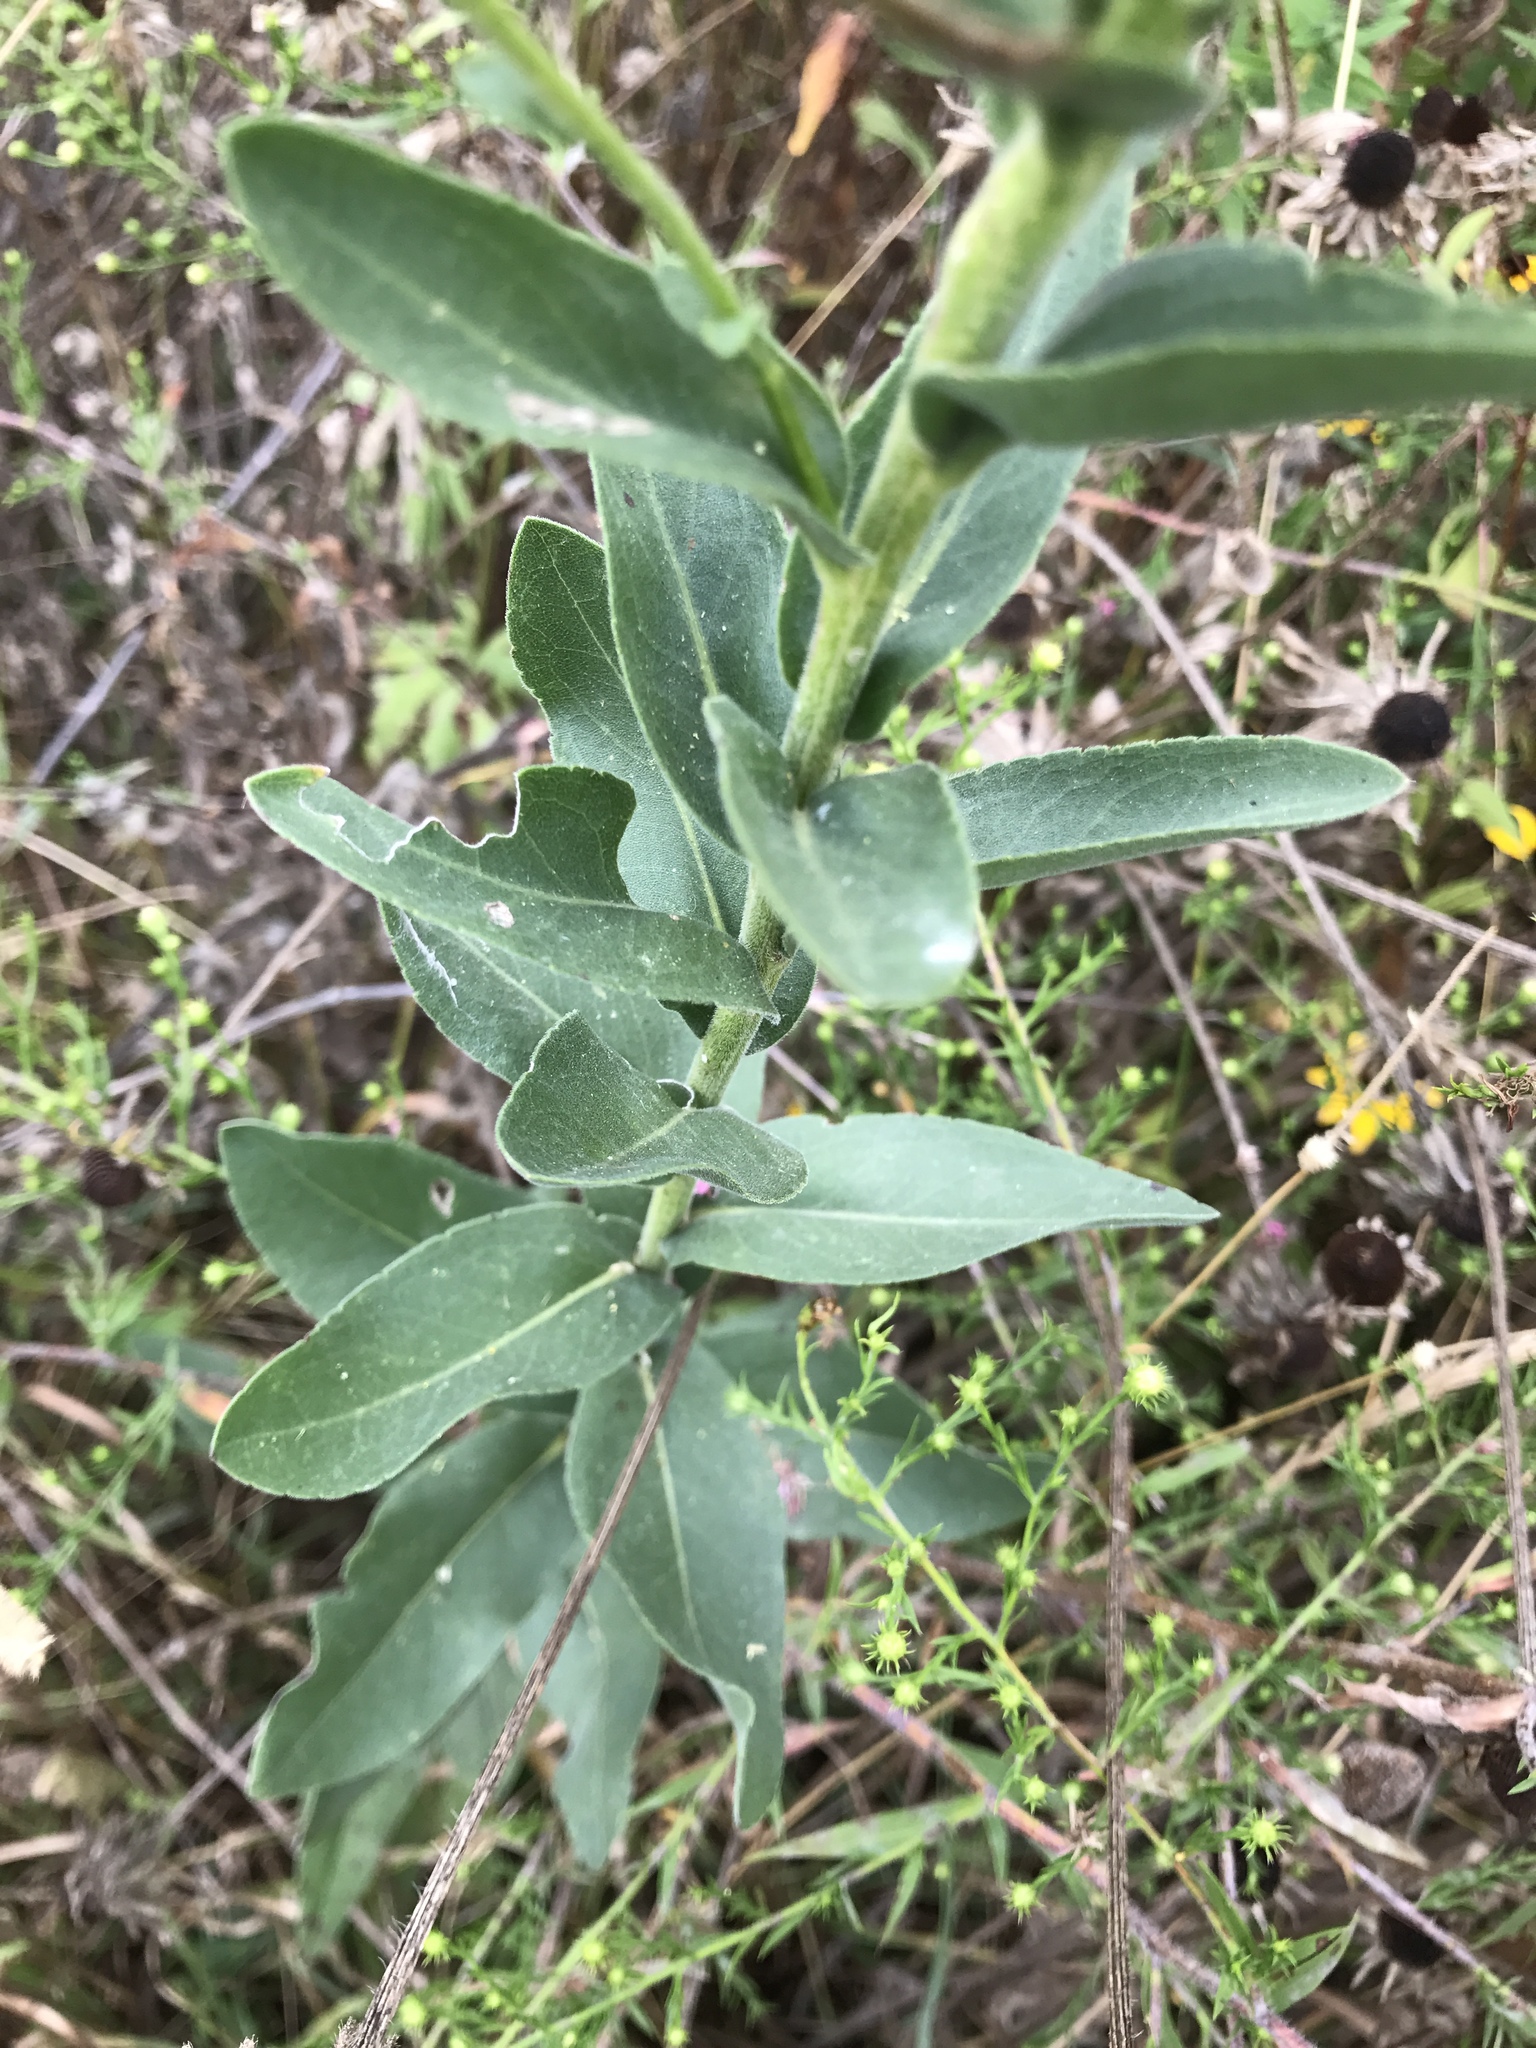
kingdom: Plantae
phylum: Tracheophyta
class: Magnoliopsida
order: Asterales
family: Asteraceae
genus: Solidago
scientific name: Solidago rigida
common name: Rigid goldenrod
